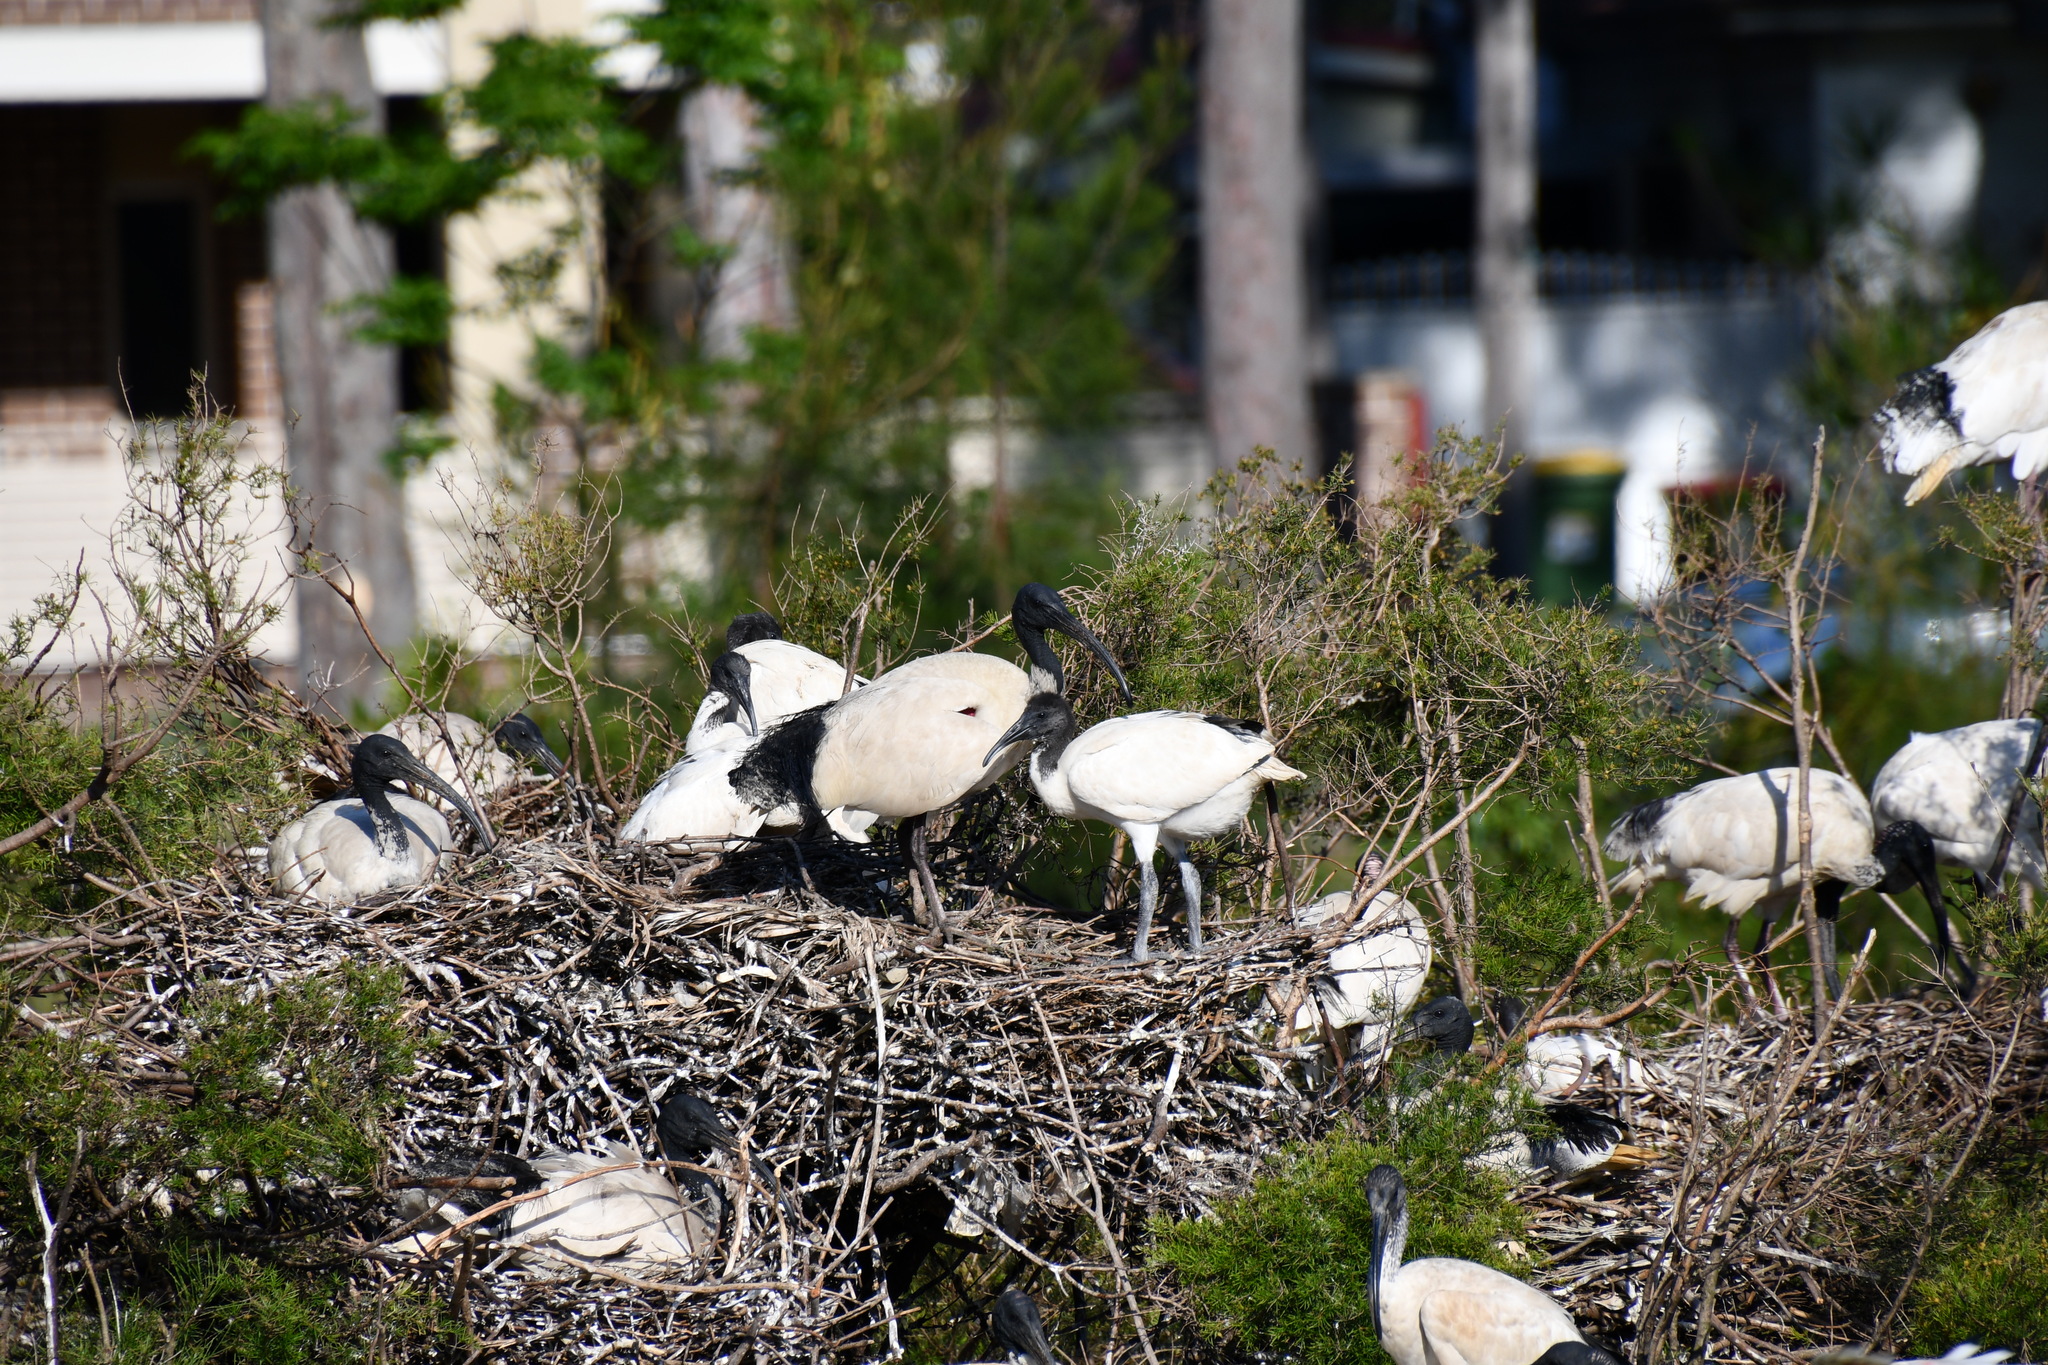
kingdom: Animalia
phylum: Chordata
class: Aves
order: Pelecaniformes
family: Threskiornithidae
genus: Threskiornis
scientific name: Threskiornis molucca
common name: Australian white ibis
